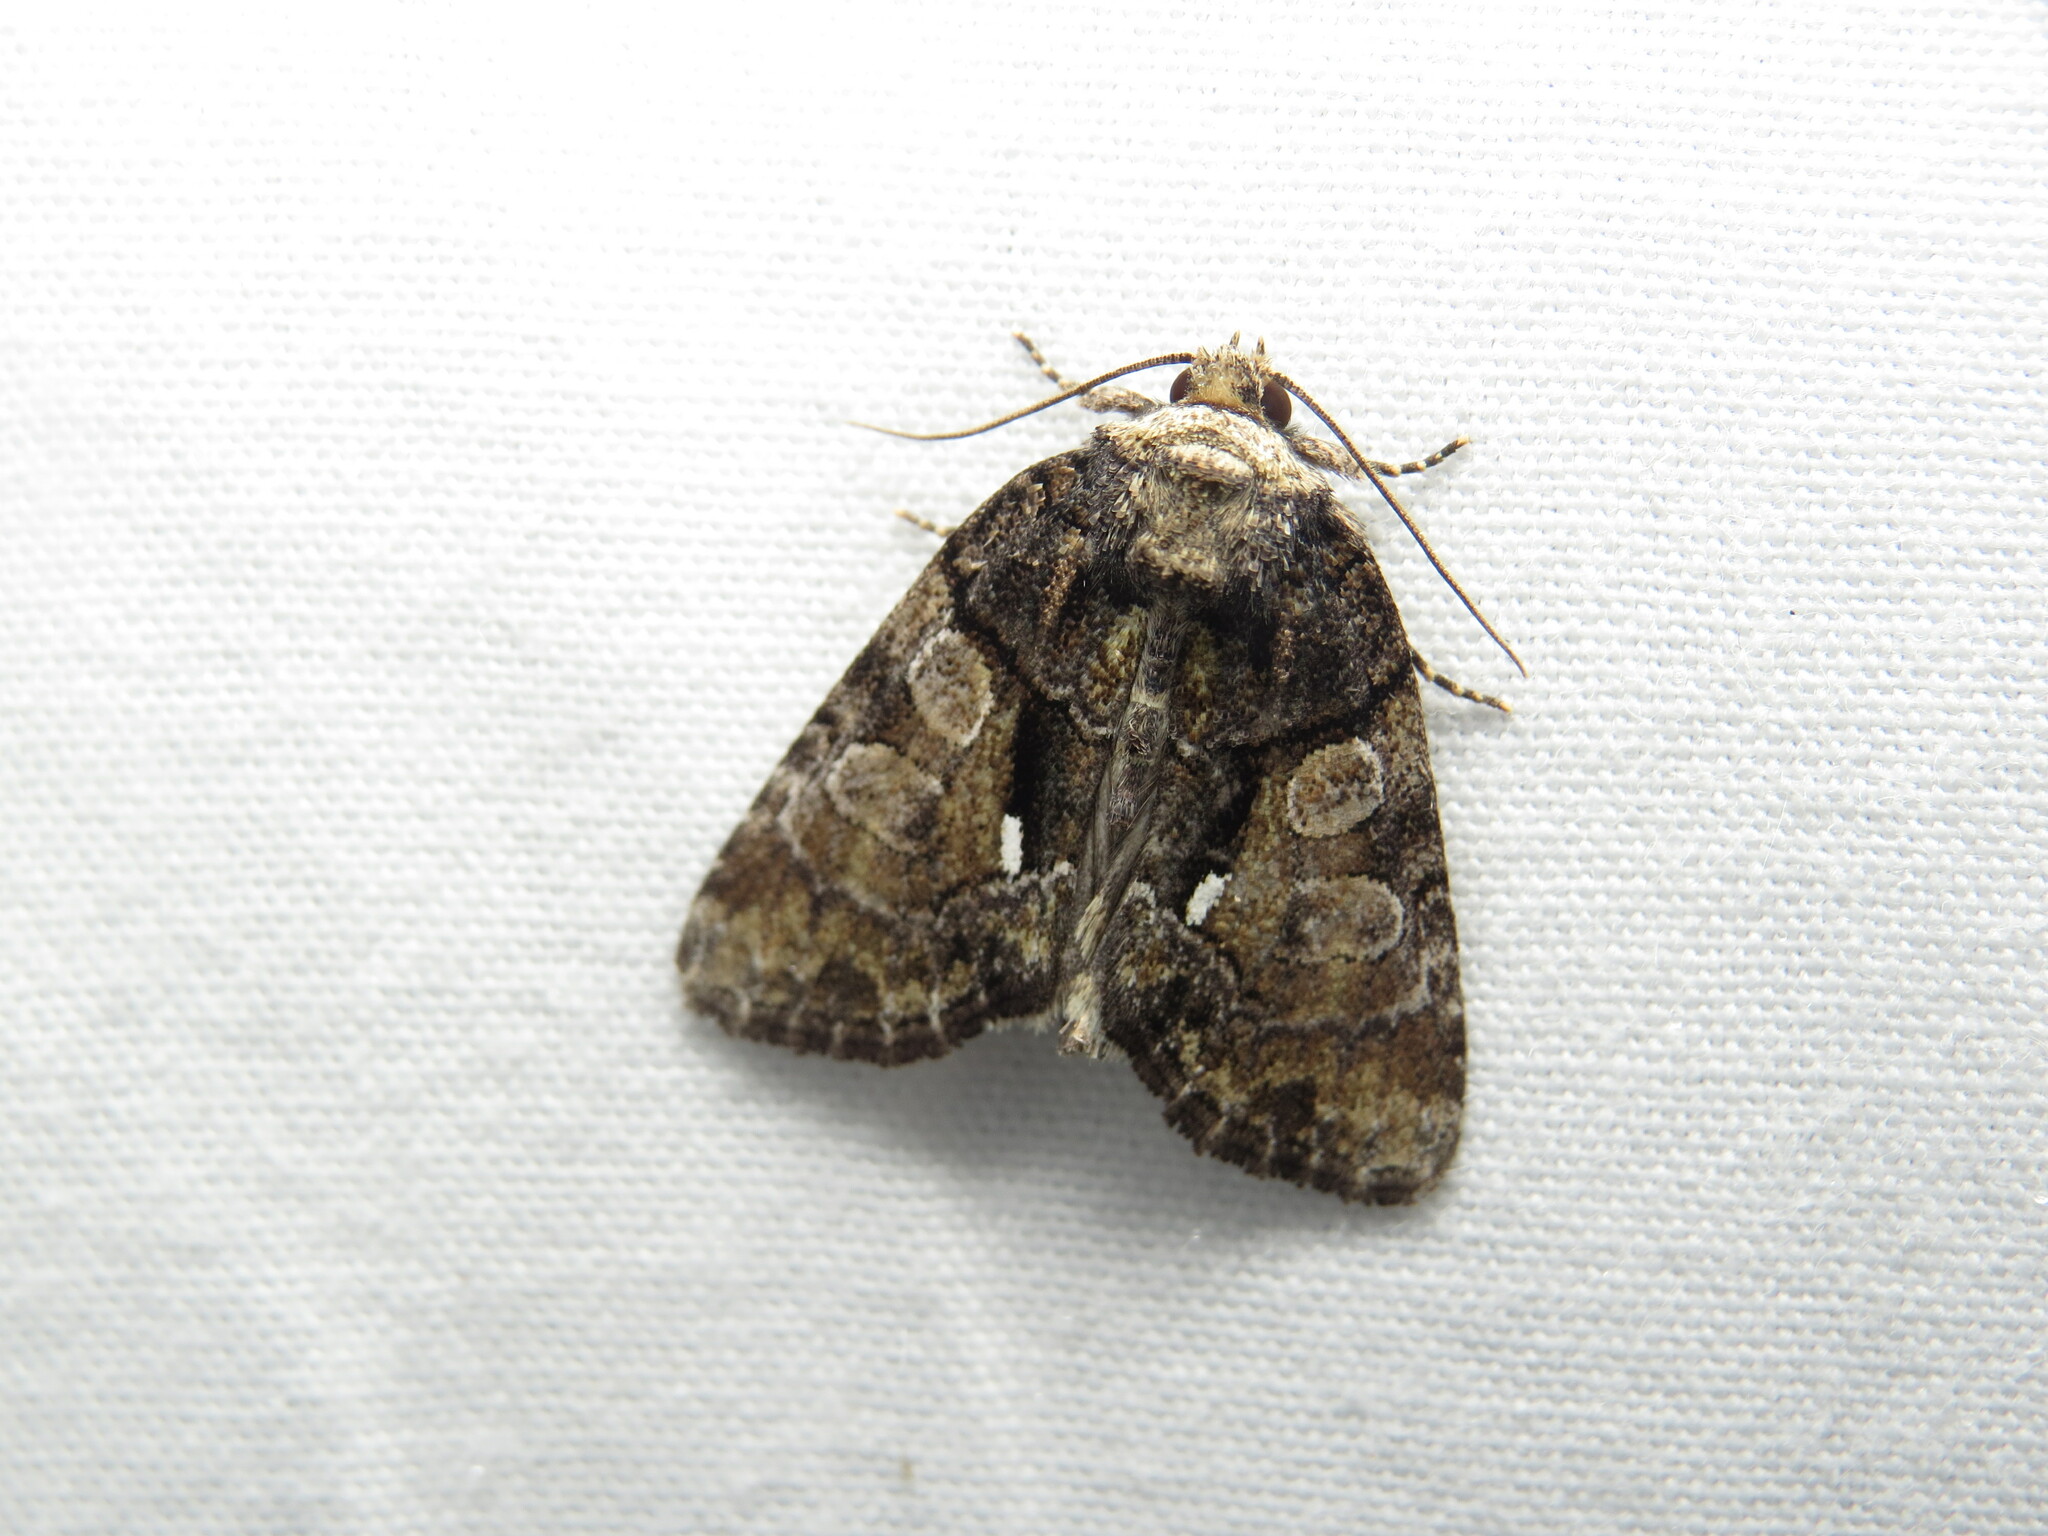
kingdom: Animalia
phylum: Arthropoda
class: Insecta
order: Lepidoptera
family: Noctuidae
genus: Chytonix
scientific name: Chytonix palliatricula
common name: Cloaked marvel
